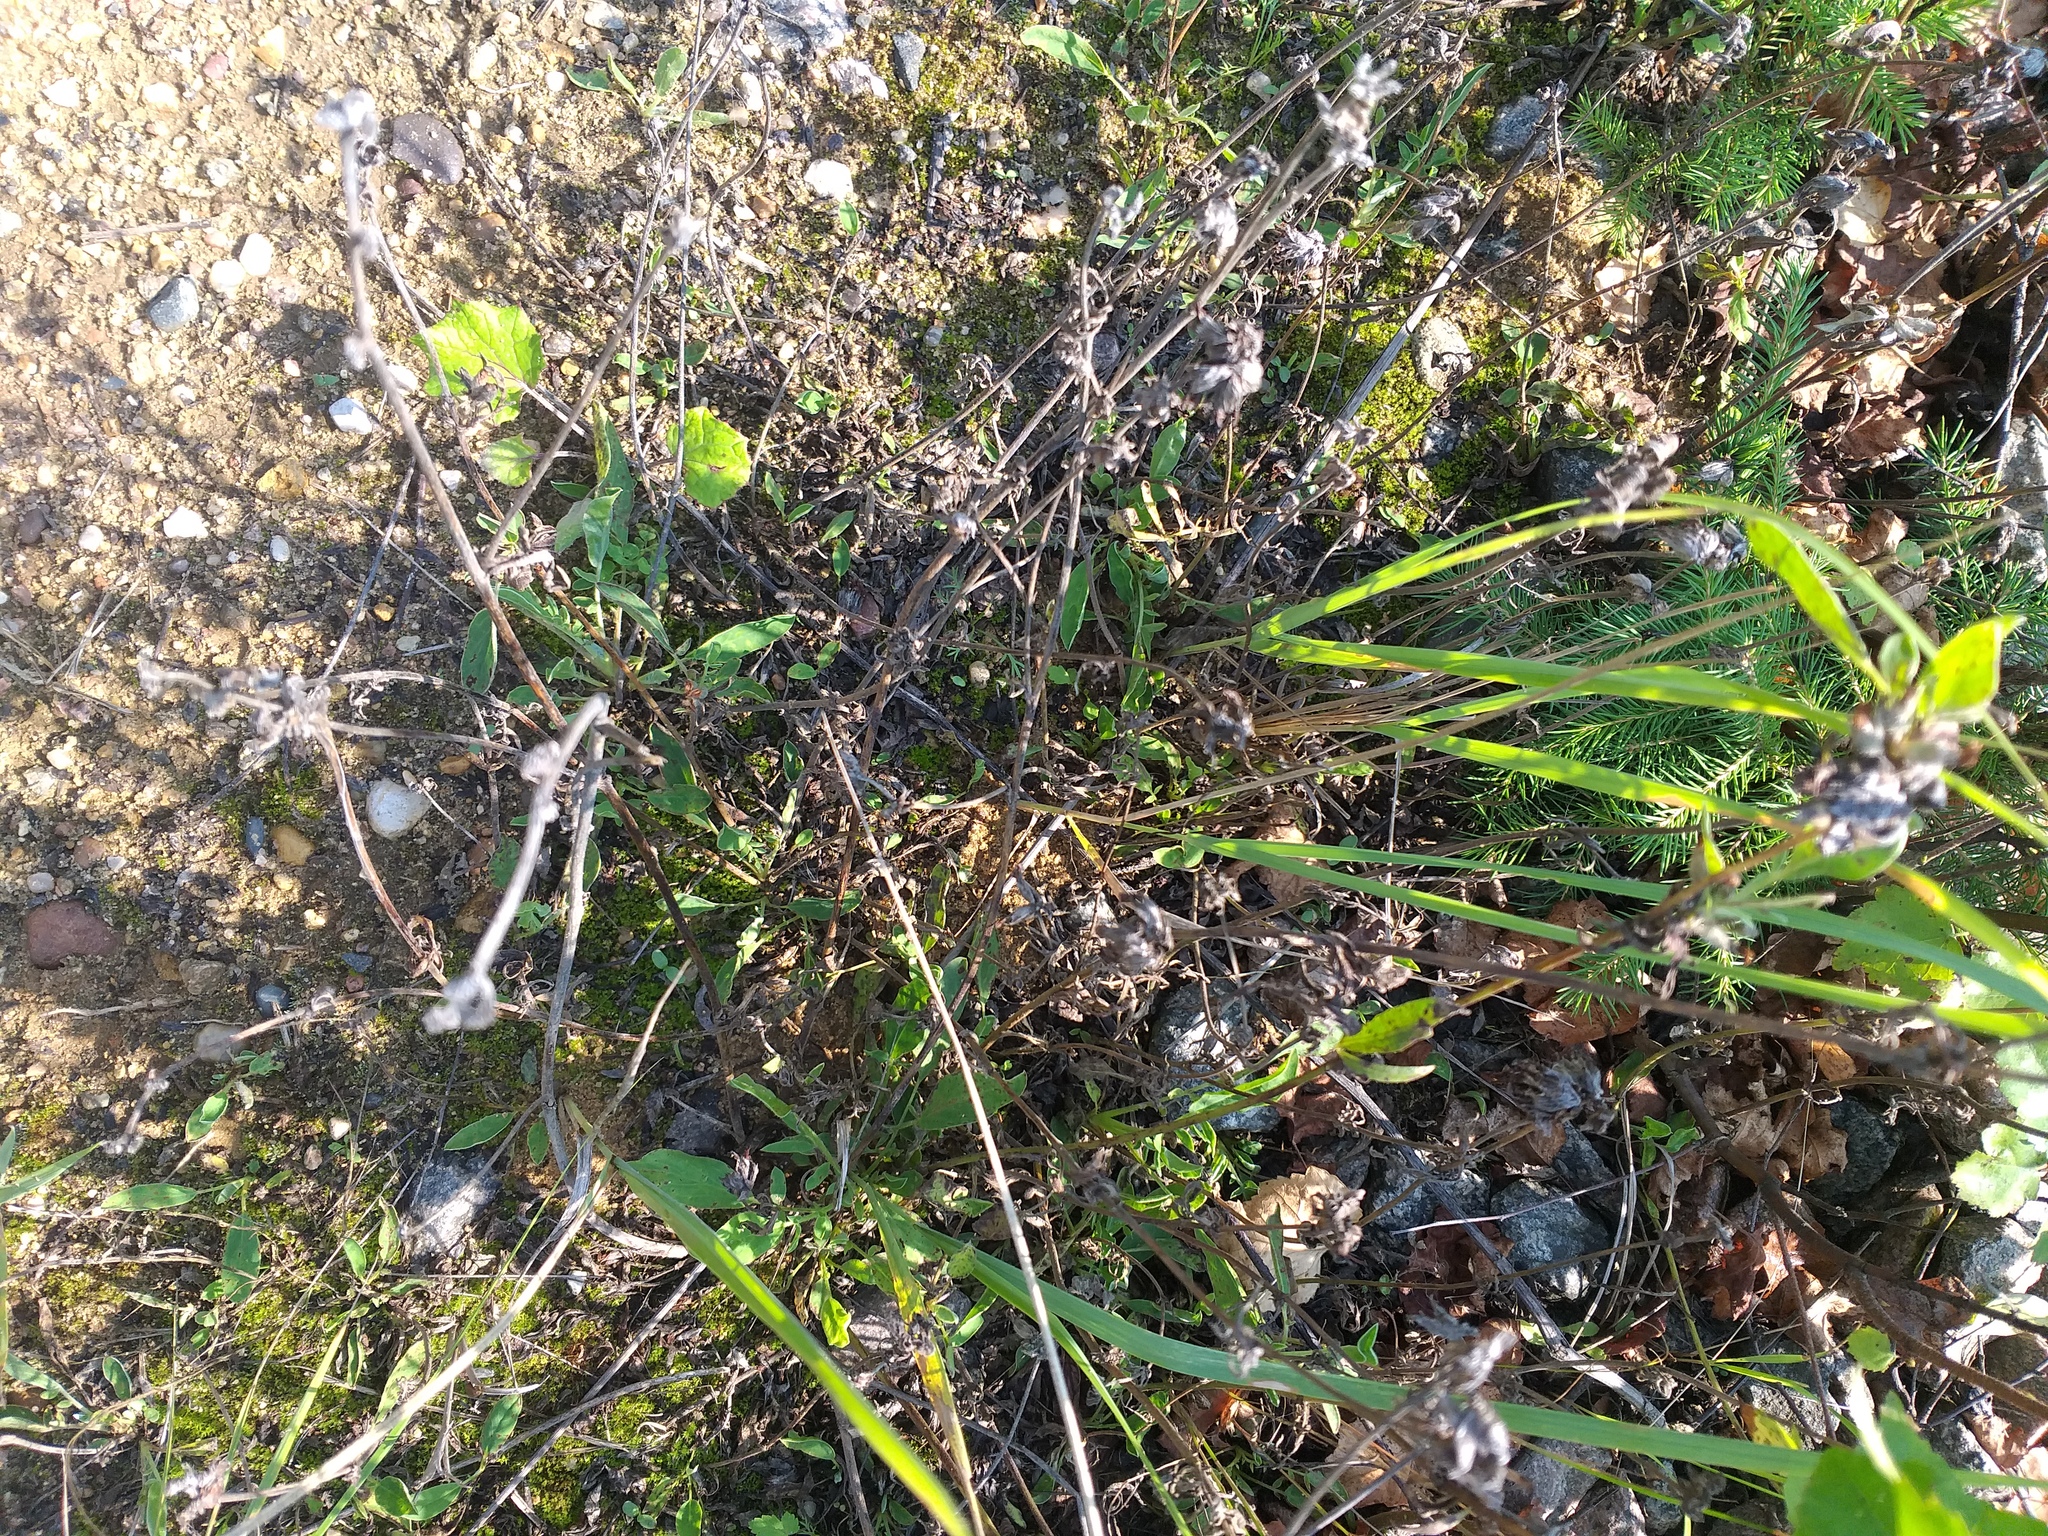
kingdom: Plantae
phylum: Tracheophyta
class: Magnoliopsida
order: Fabales
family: Fabaceae
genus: Anthyllis
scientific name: Anthyllis vulneraria
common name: Kidney vetch
